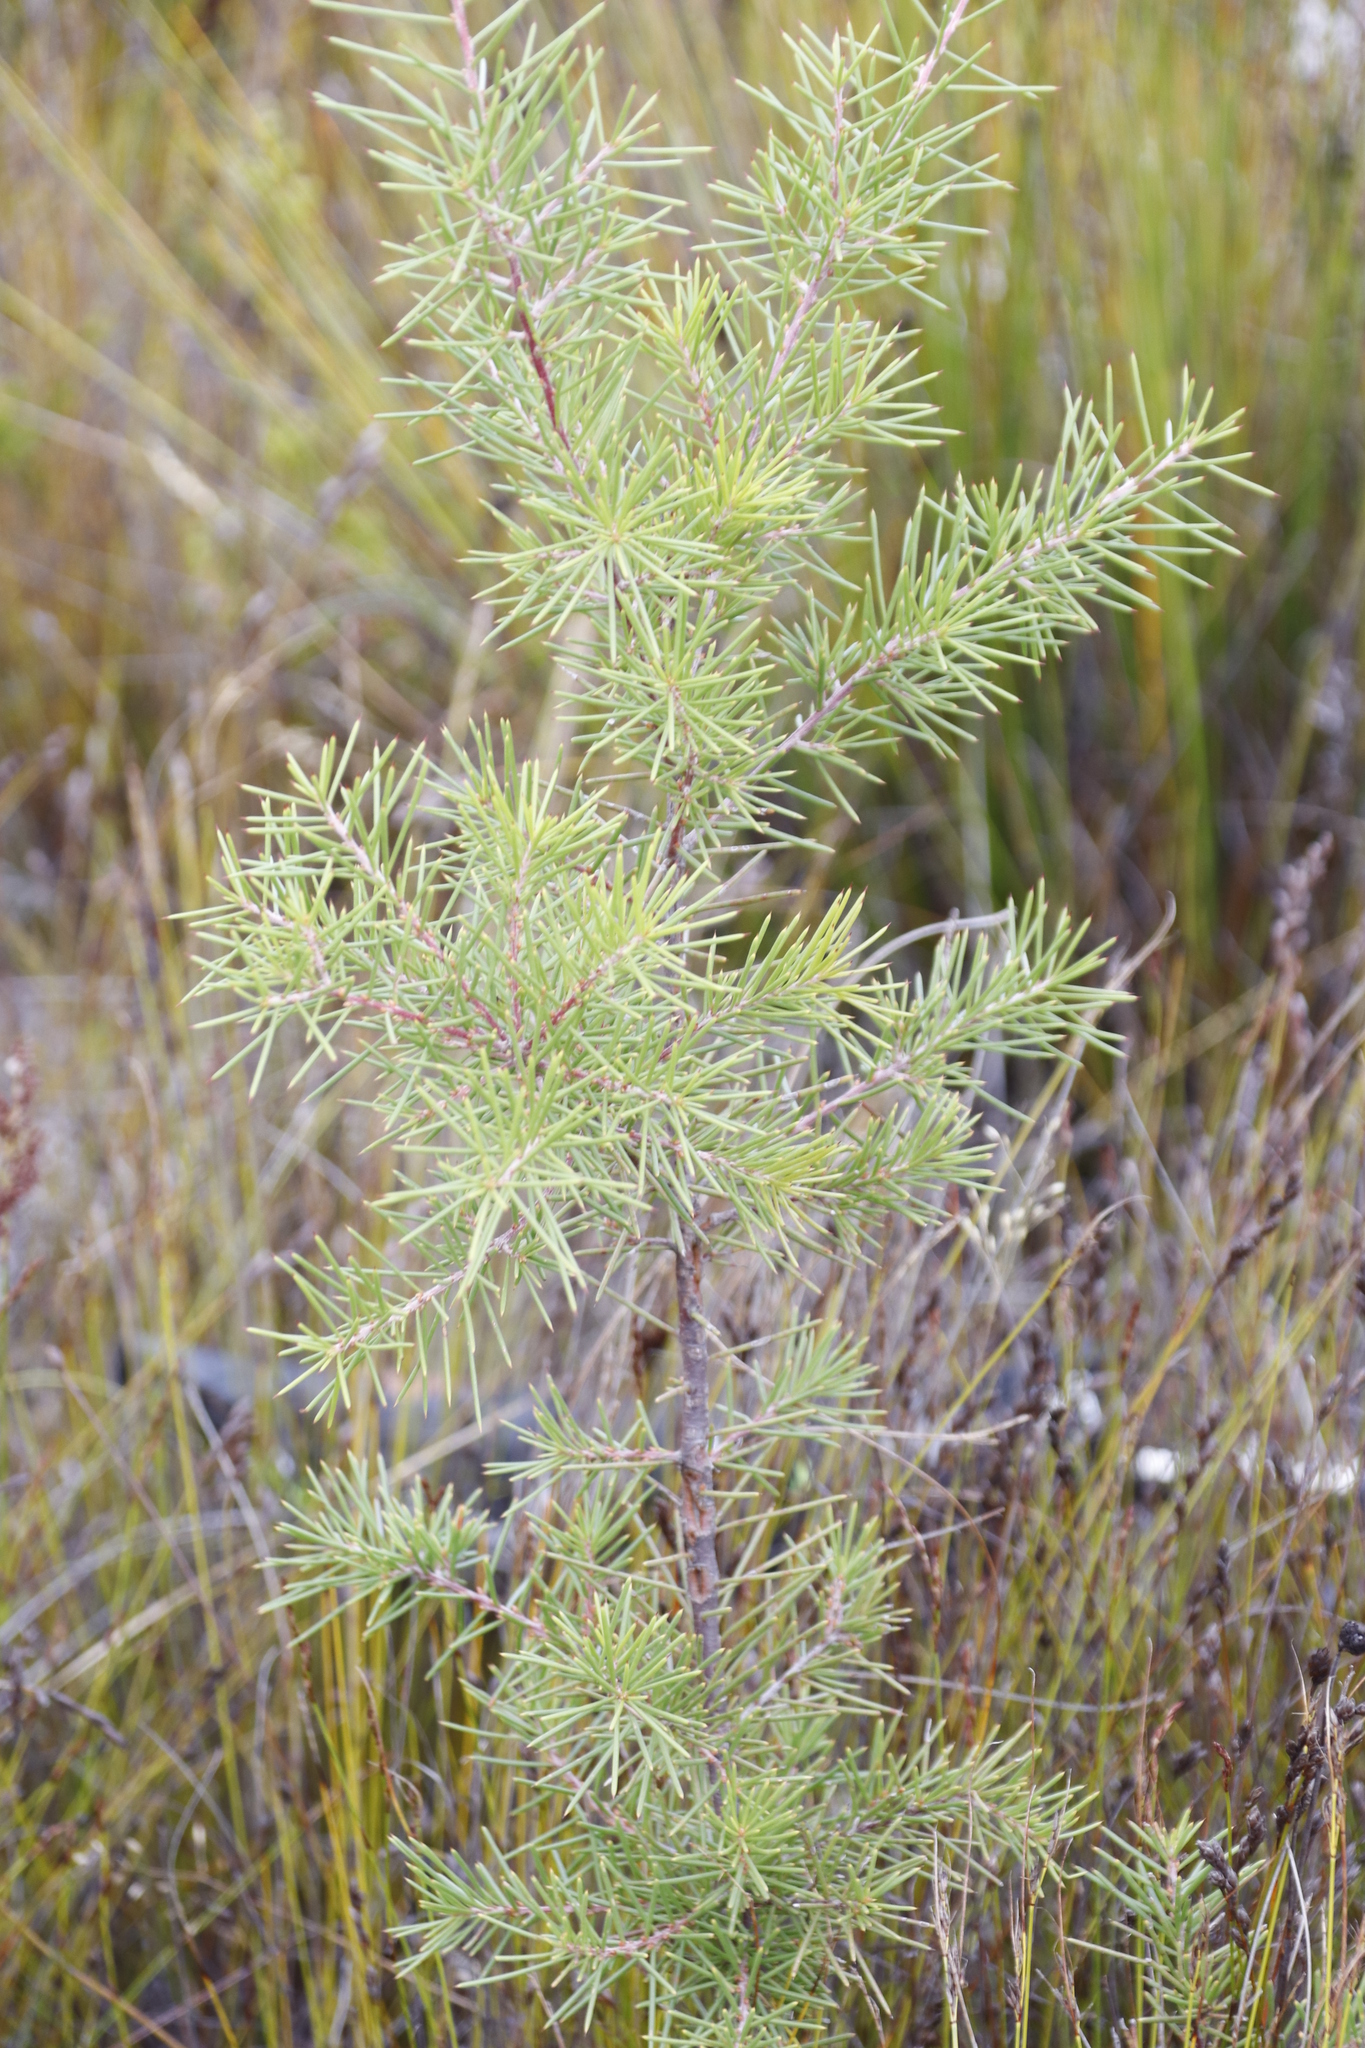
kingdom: Plantae
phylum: Tracheophyta
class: Magnoliopsida
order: Proteales
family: Proteaceae
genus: Hakea
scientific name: Hakea sericea
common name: Needle bush
